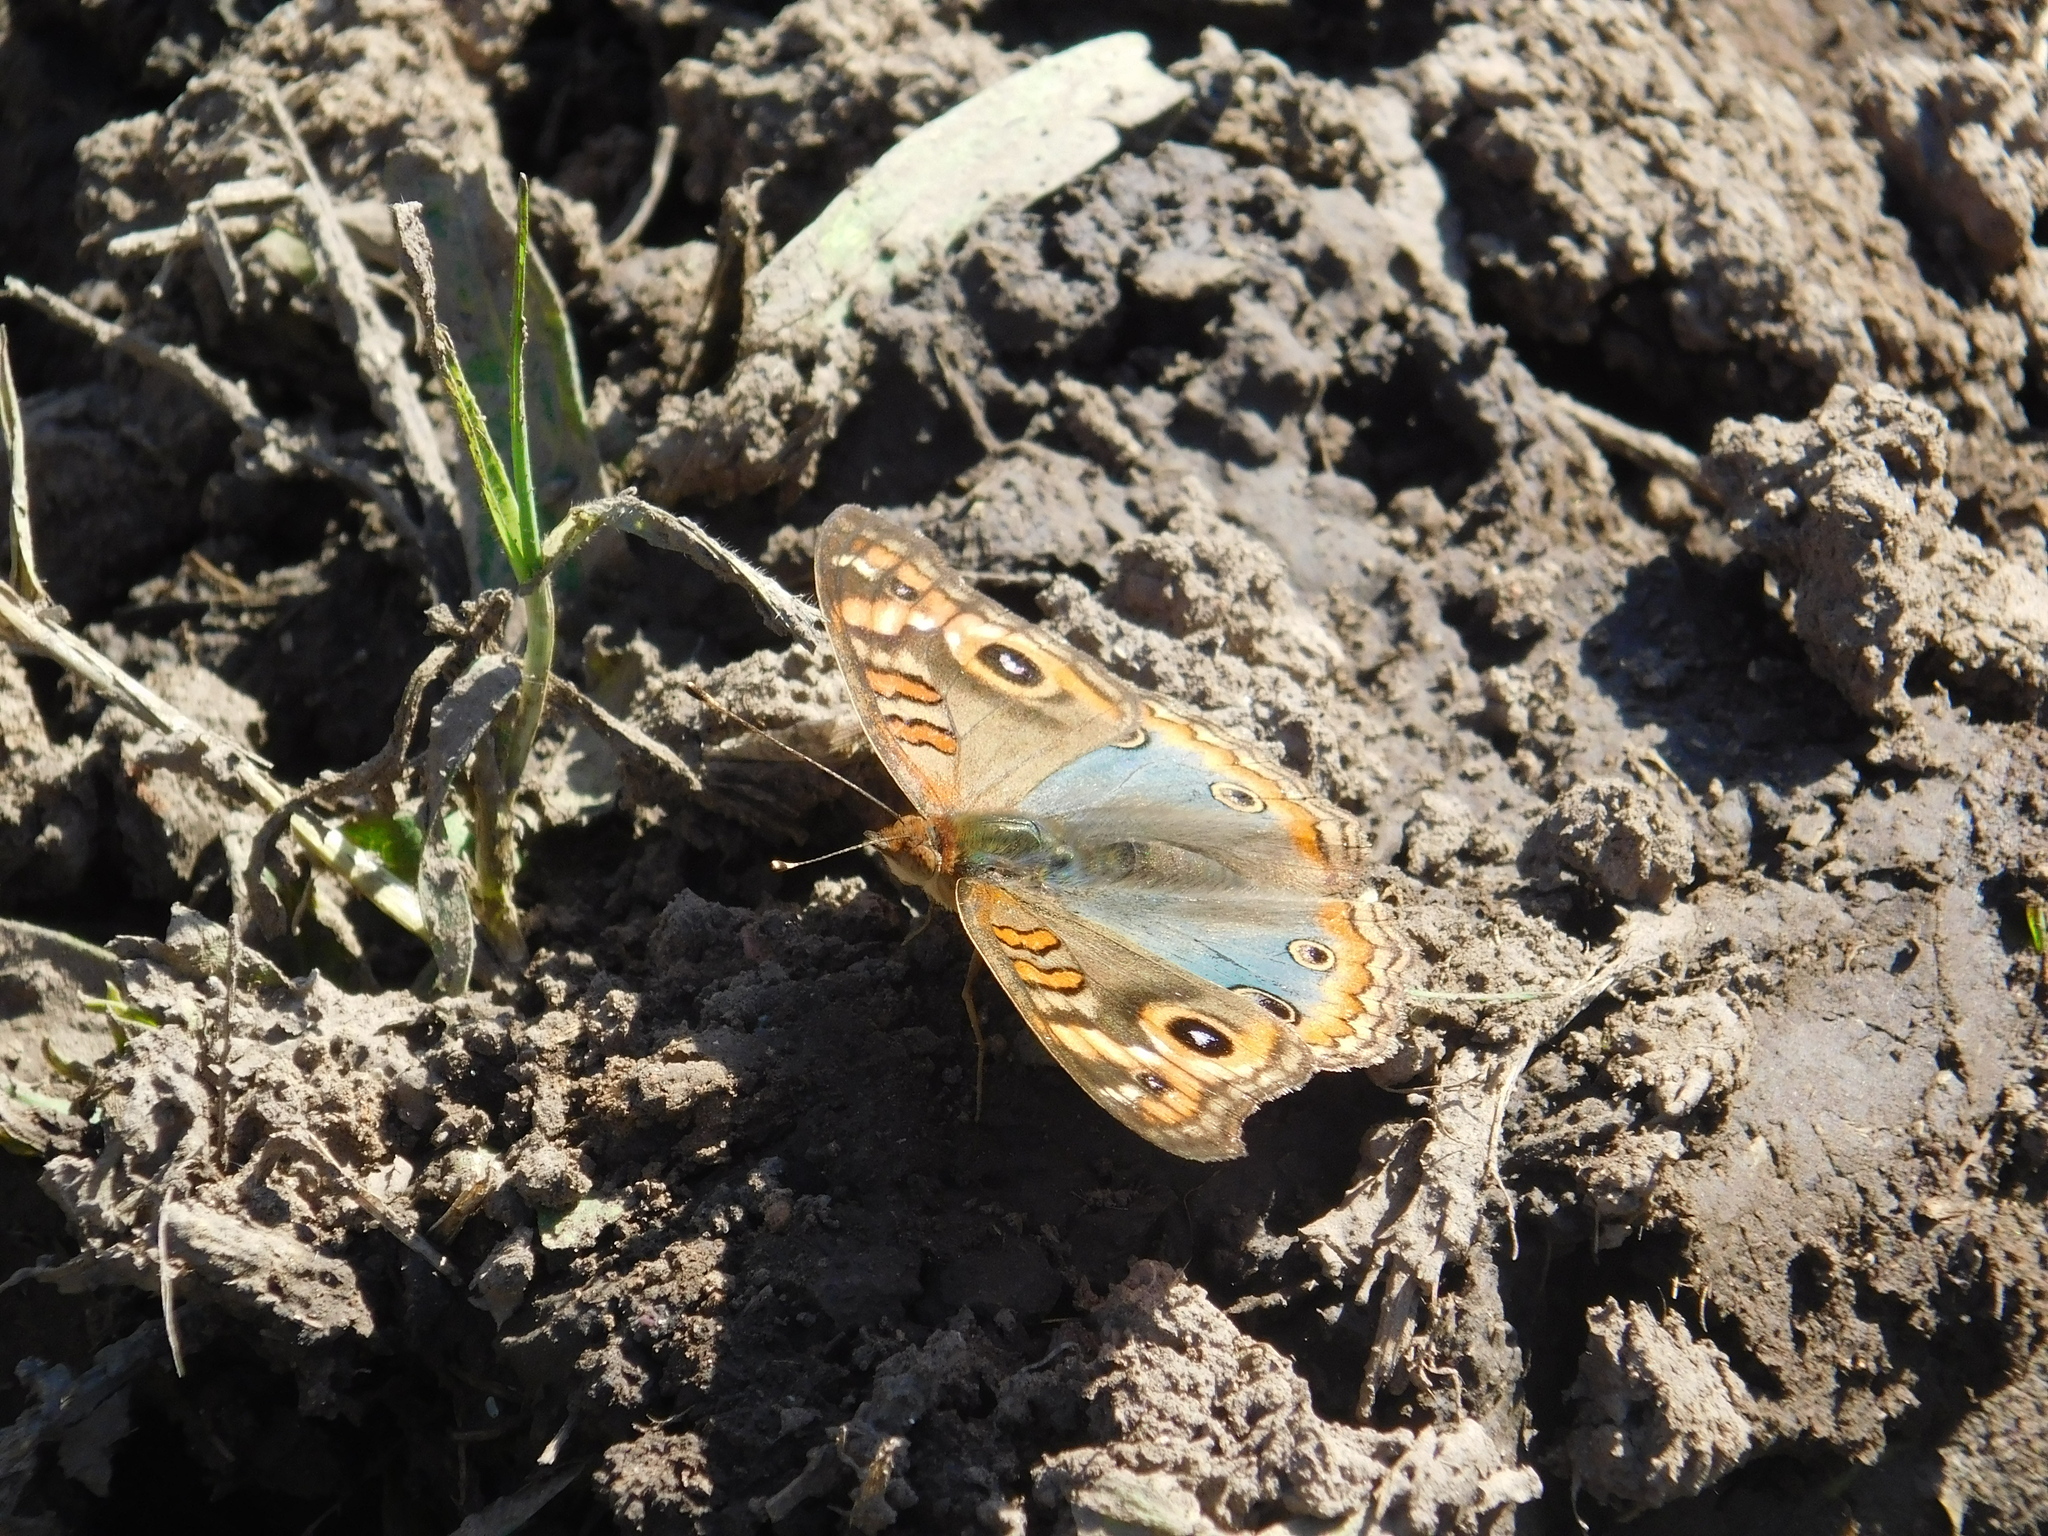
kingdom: Animalia
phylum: Arthropoda
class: Insecta
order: Lepidoptera
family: Nymphalidae
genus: Junonia
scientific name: Junonia lavinia
